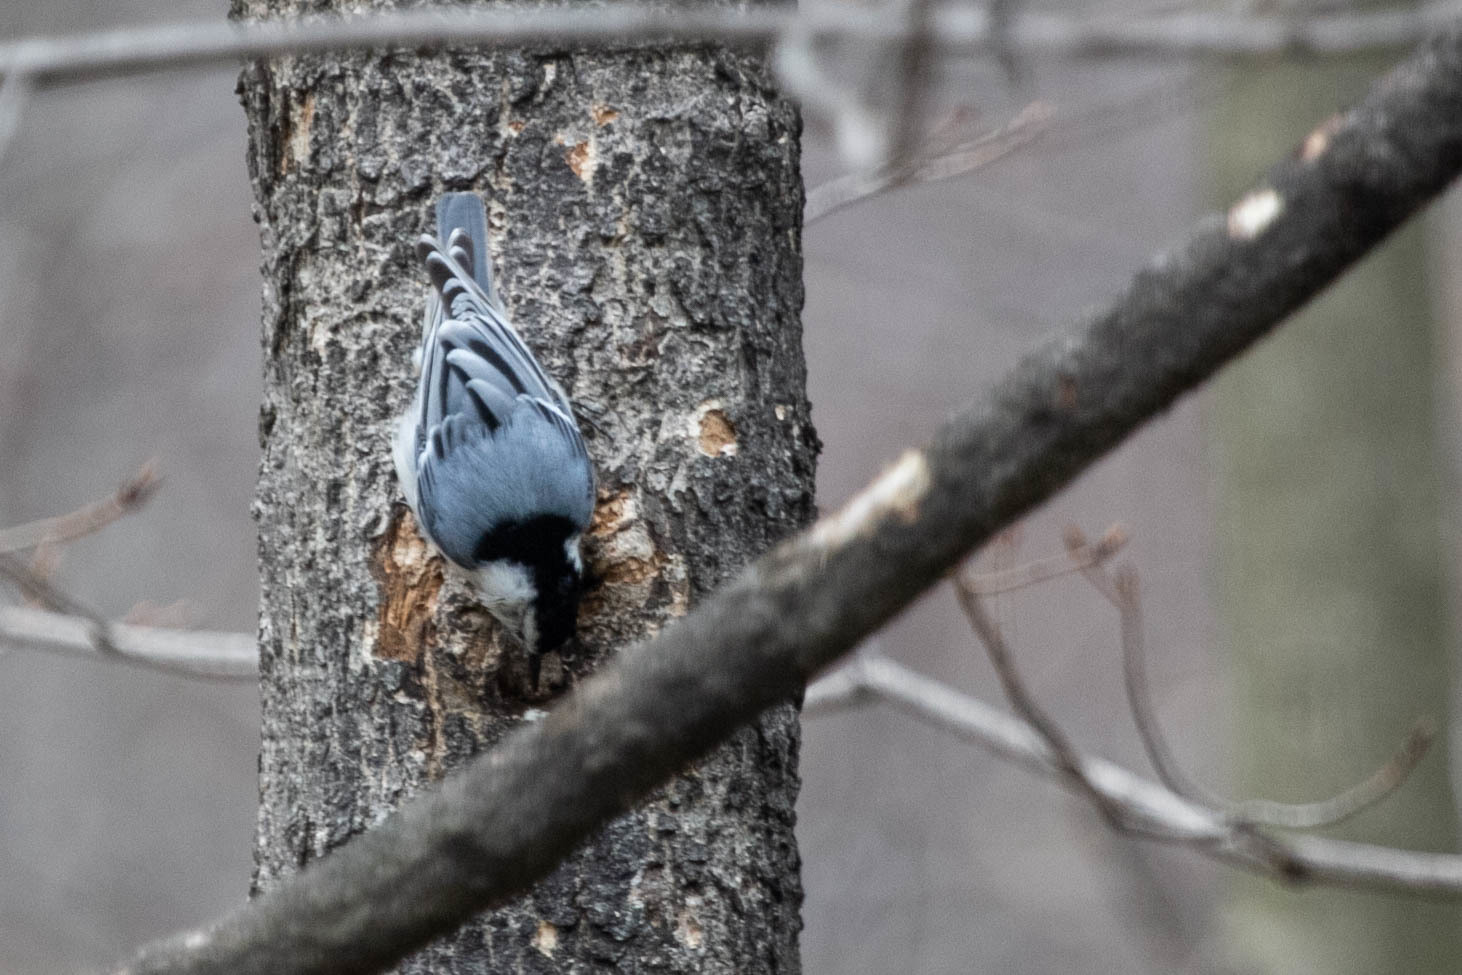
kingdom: Animalia
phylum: Chordata
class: Aves
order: Passeriformes
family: Sittidae
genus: Sitta
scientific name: Sitta carolinensis
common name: White-breasted nuthatch
